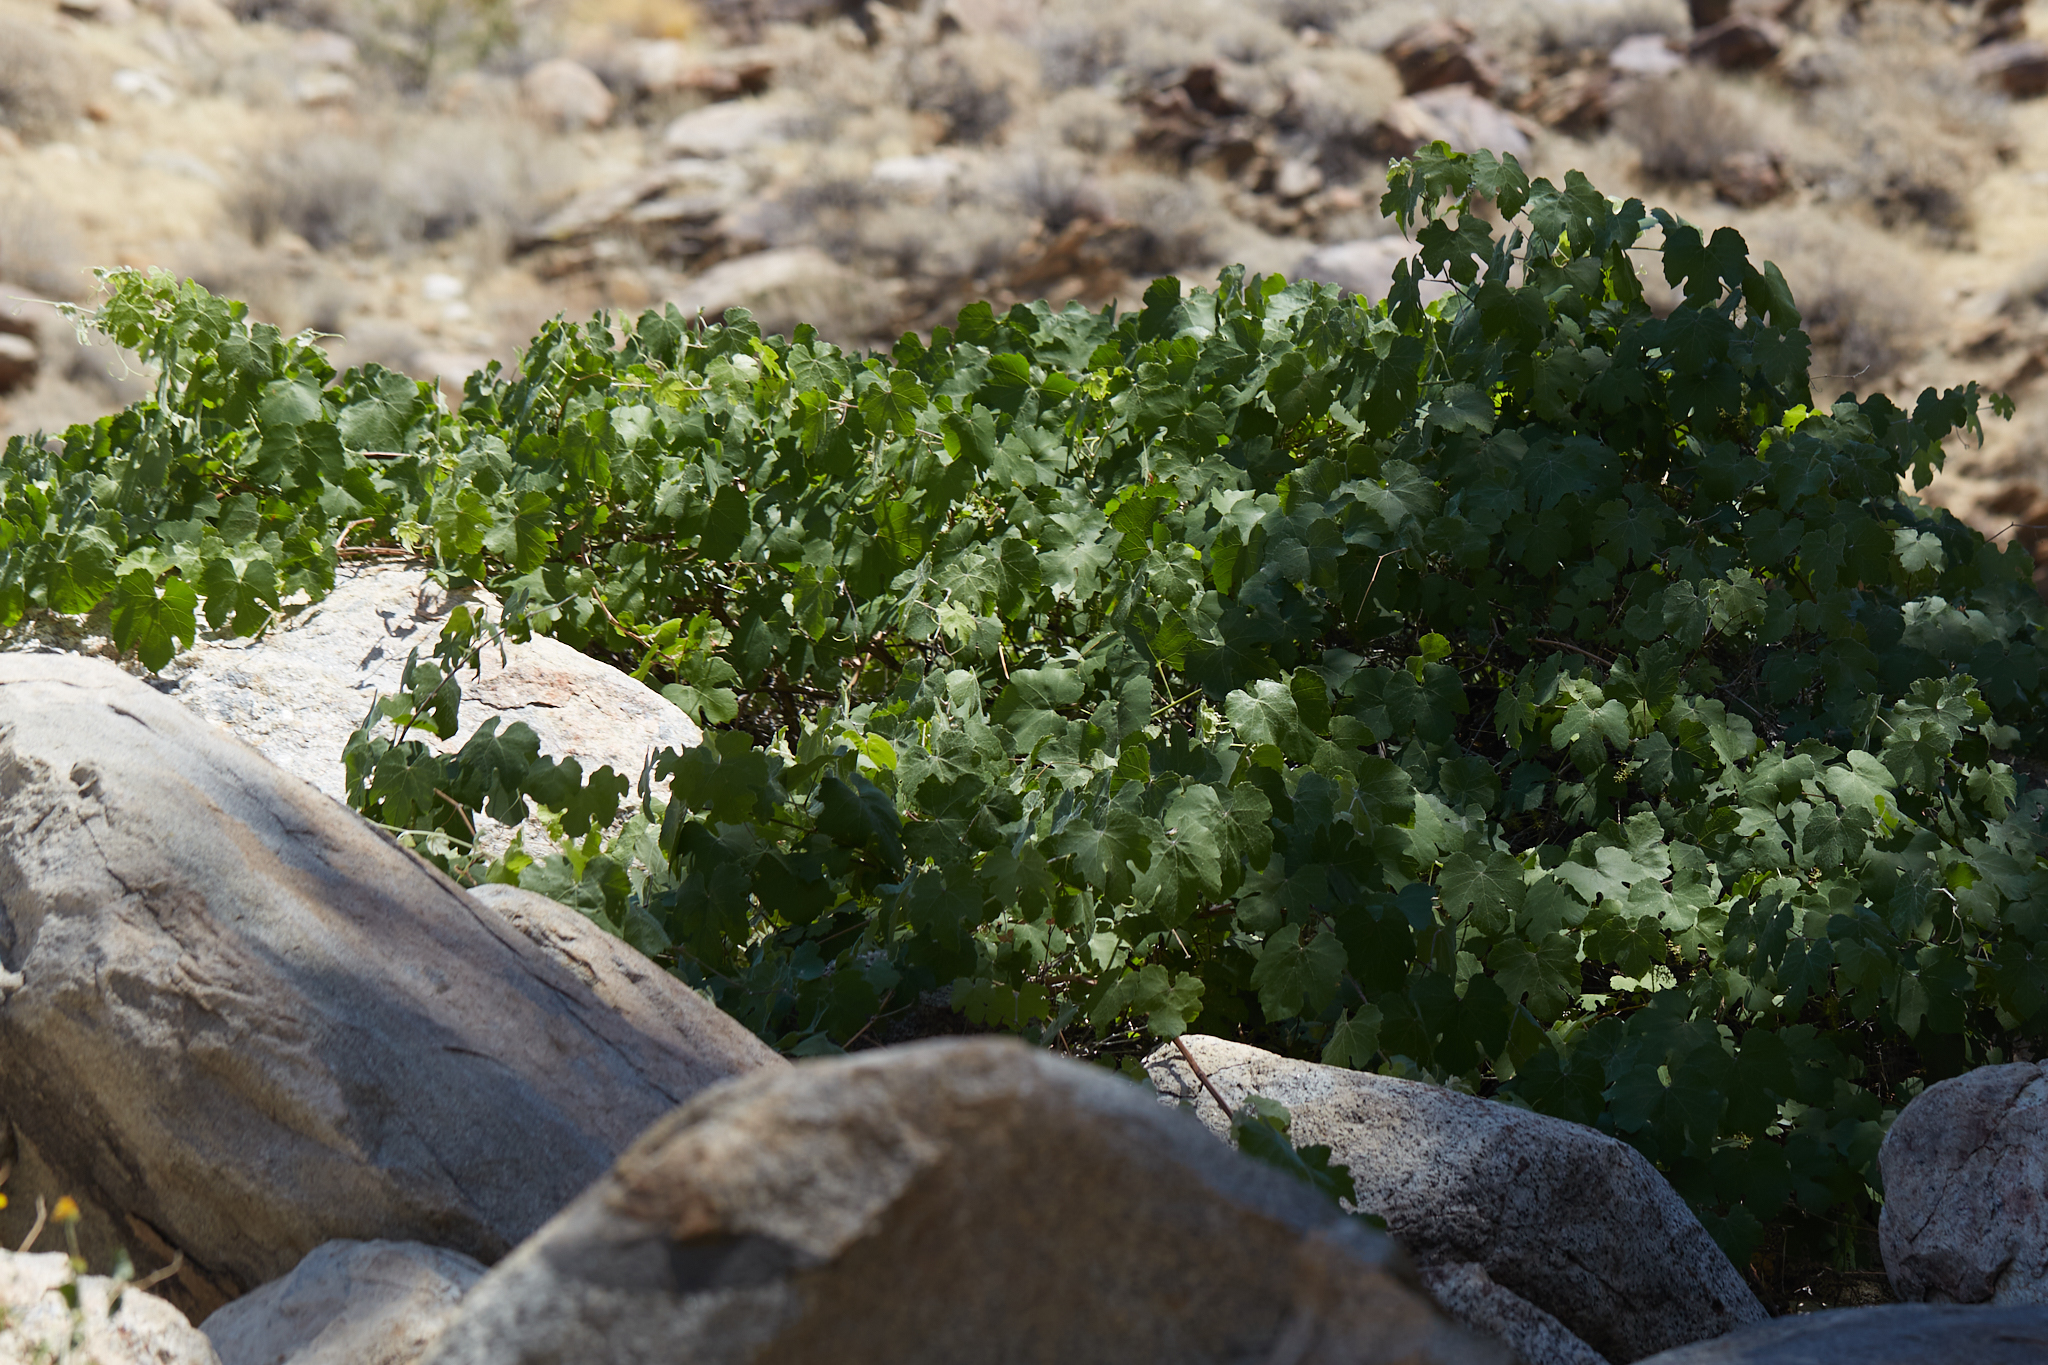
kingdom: Plantae
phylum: Tracheophyta
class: Magnoliopsida
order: Vitales
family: Vitaceae
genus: Vitis
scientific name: Vitis girdiana
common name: Desert wild grape
